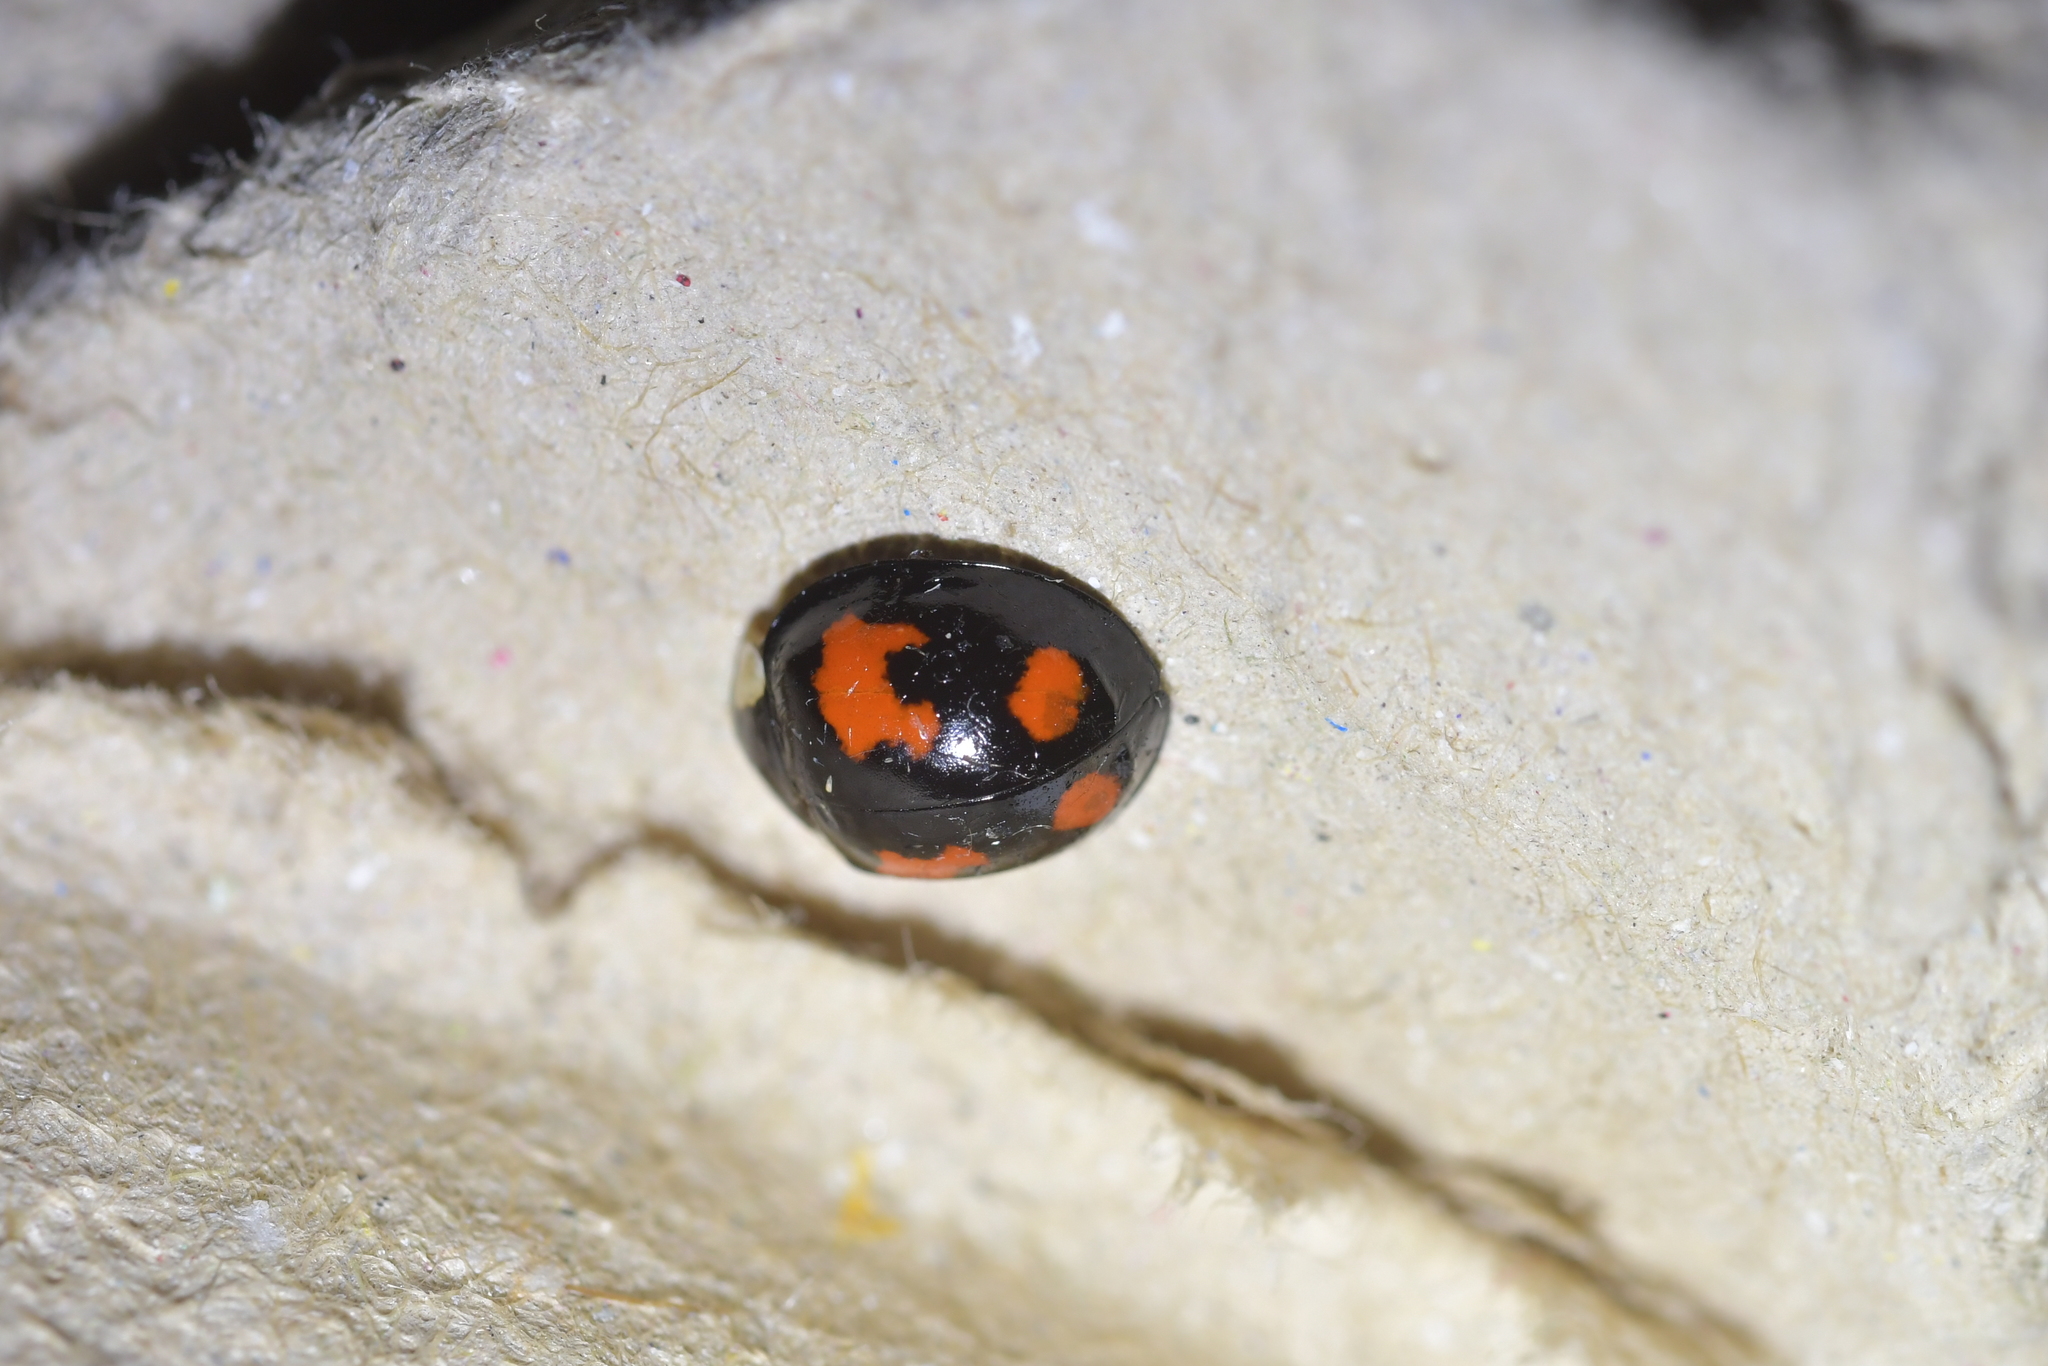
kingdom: Animalia
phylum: Arthropoda
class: Insecta
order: Coleoptera
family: Coccinellidae
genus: Harmonia
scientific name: Harmonia axyridis
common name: Harlequin ladybird
